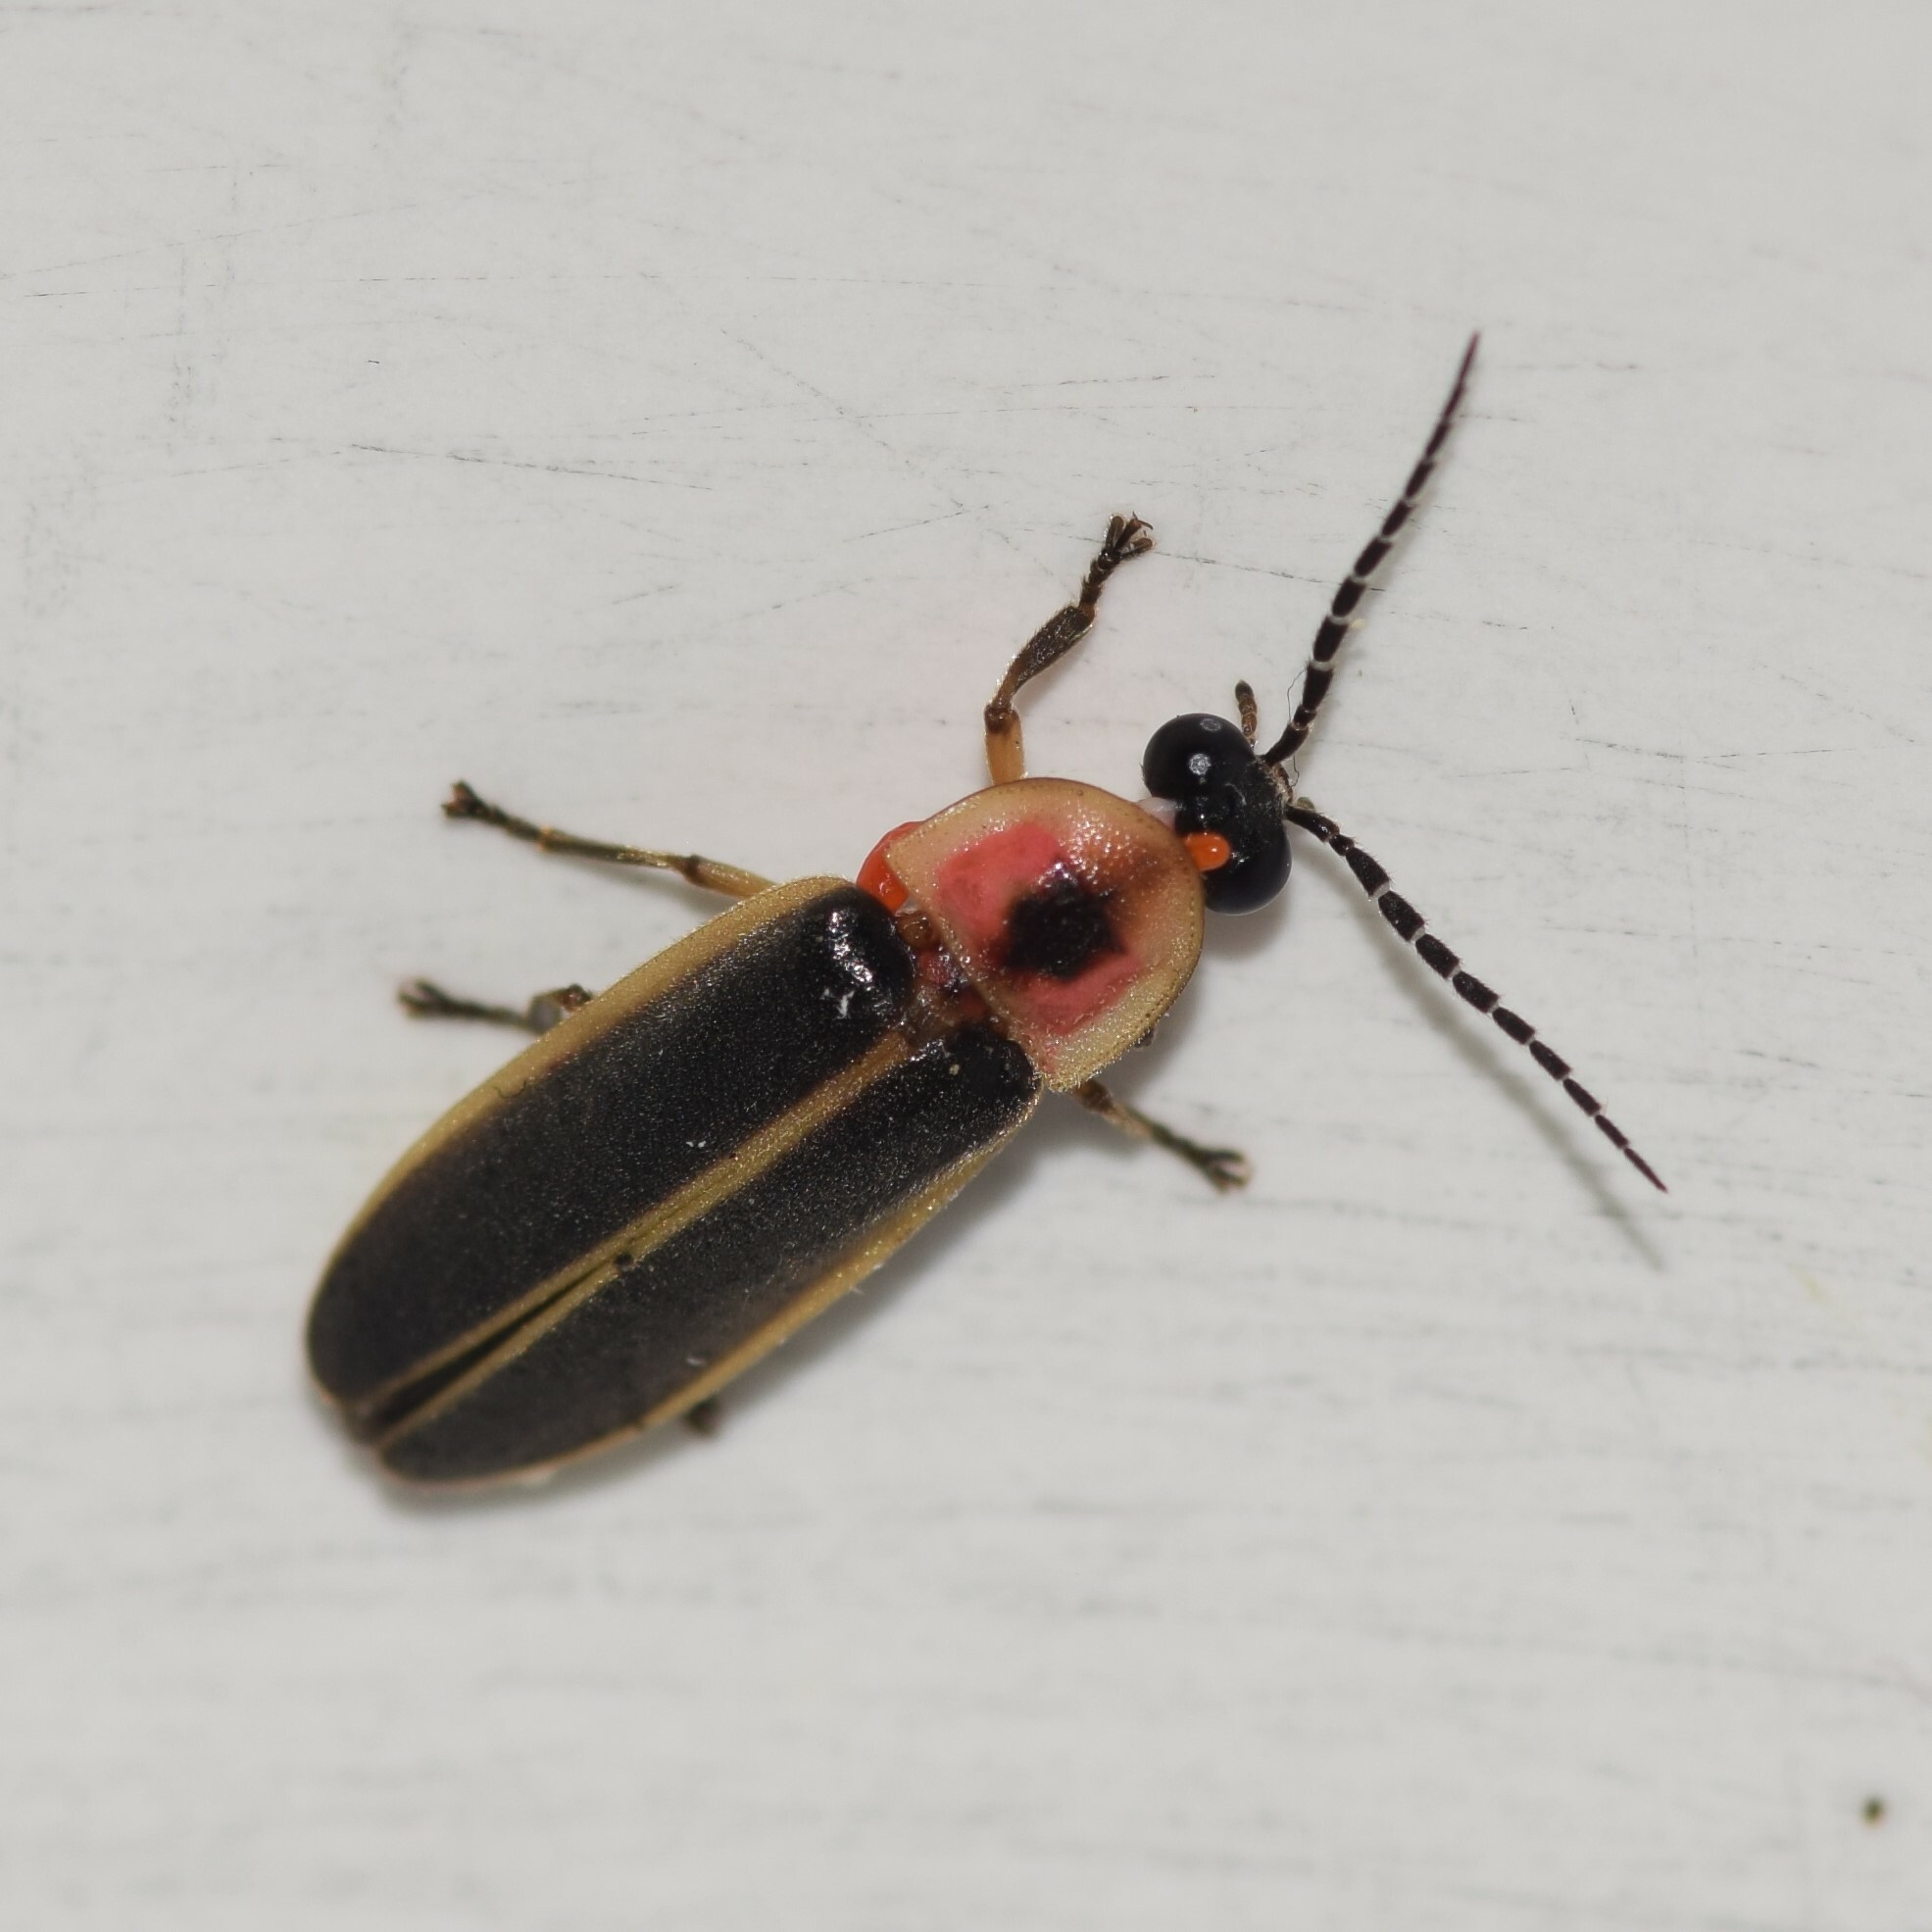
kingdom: Animalia
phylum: Arthropoda
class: Insecta
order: Coleoptera
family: Lampyridae
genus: Photinus
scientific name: Photinus pyralis
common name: Big dipper firefly
